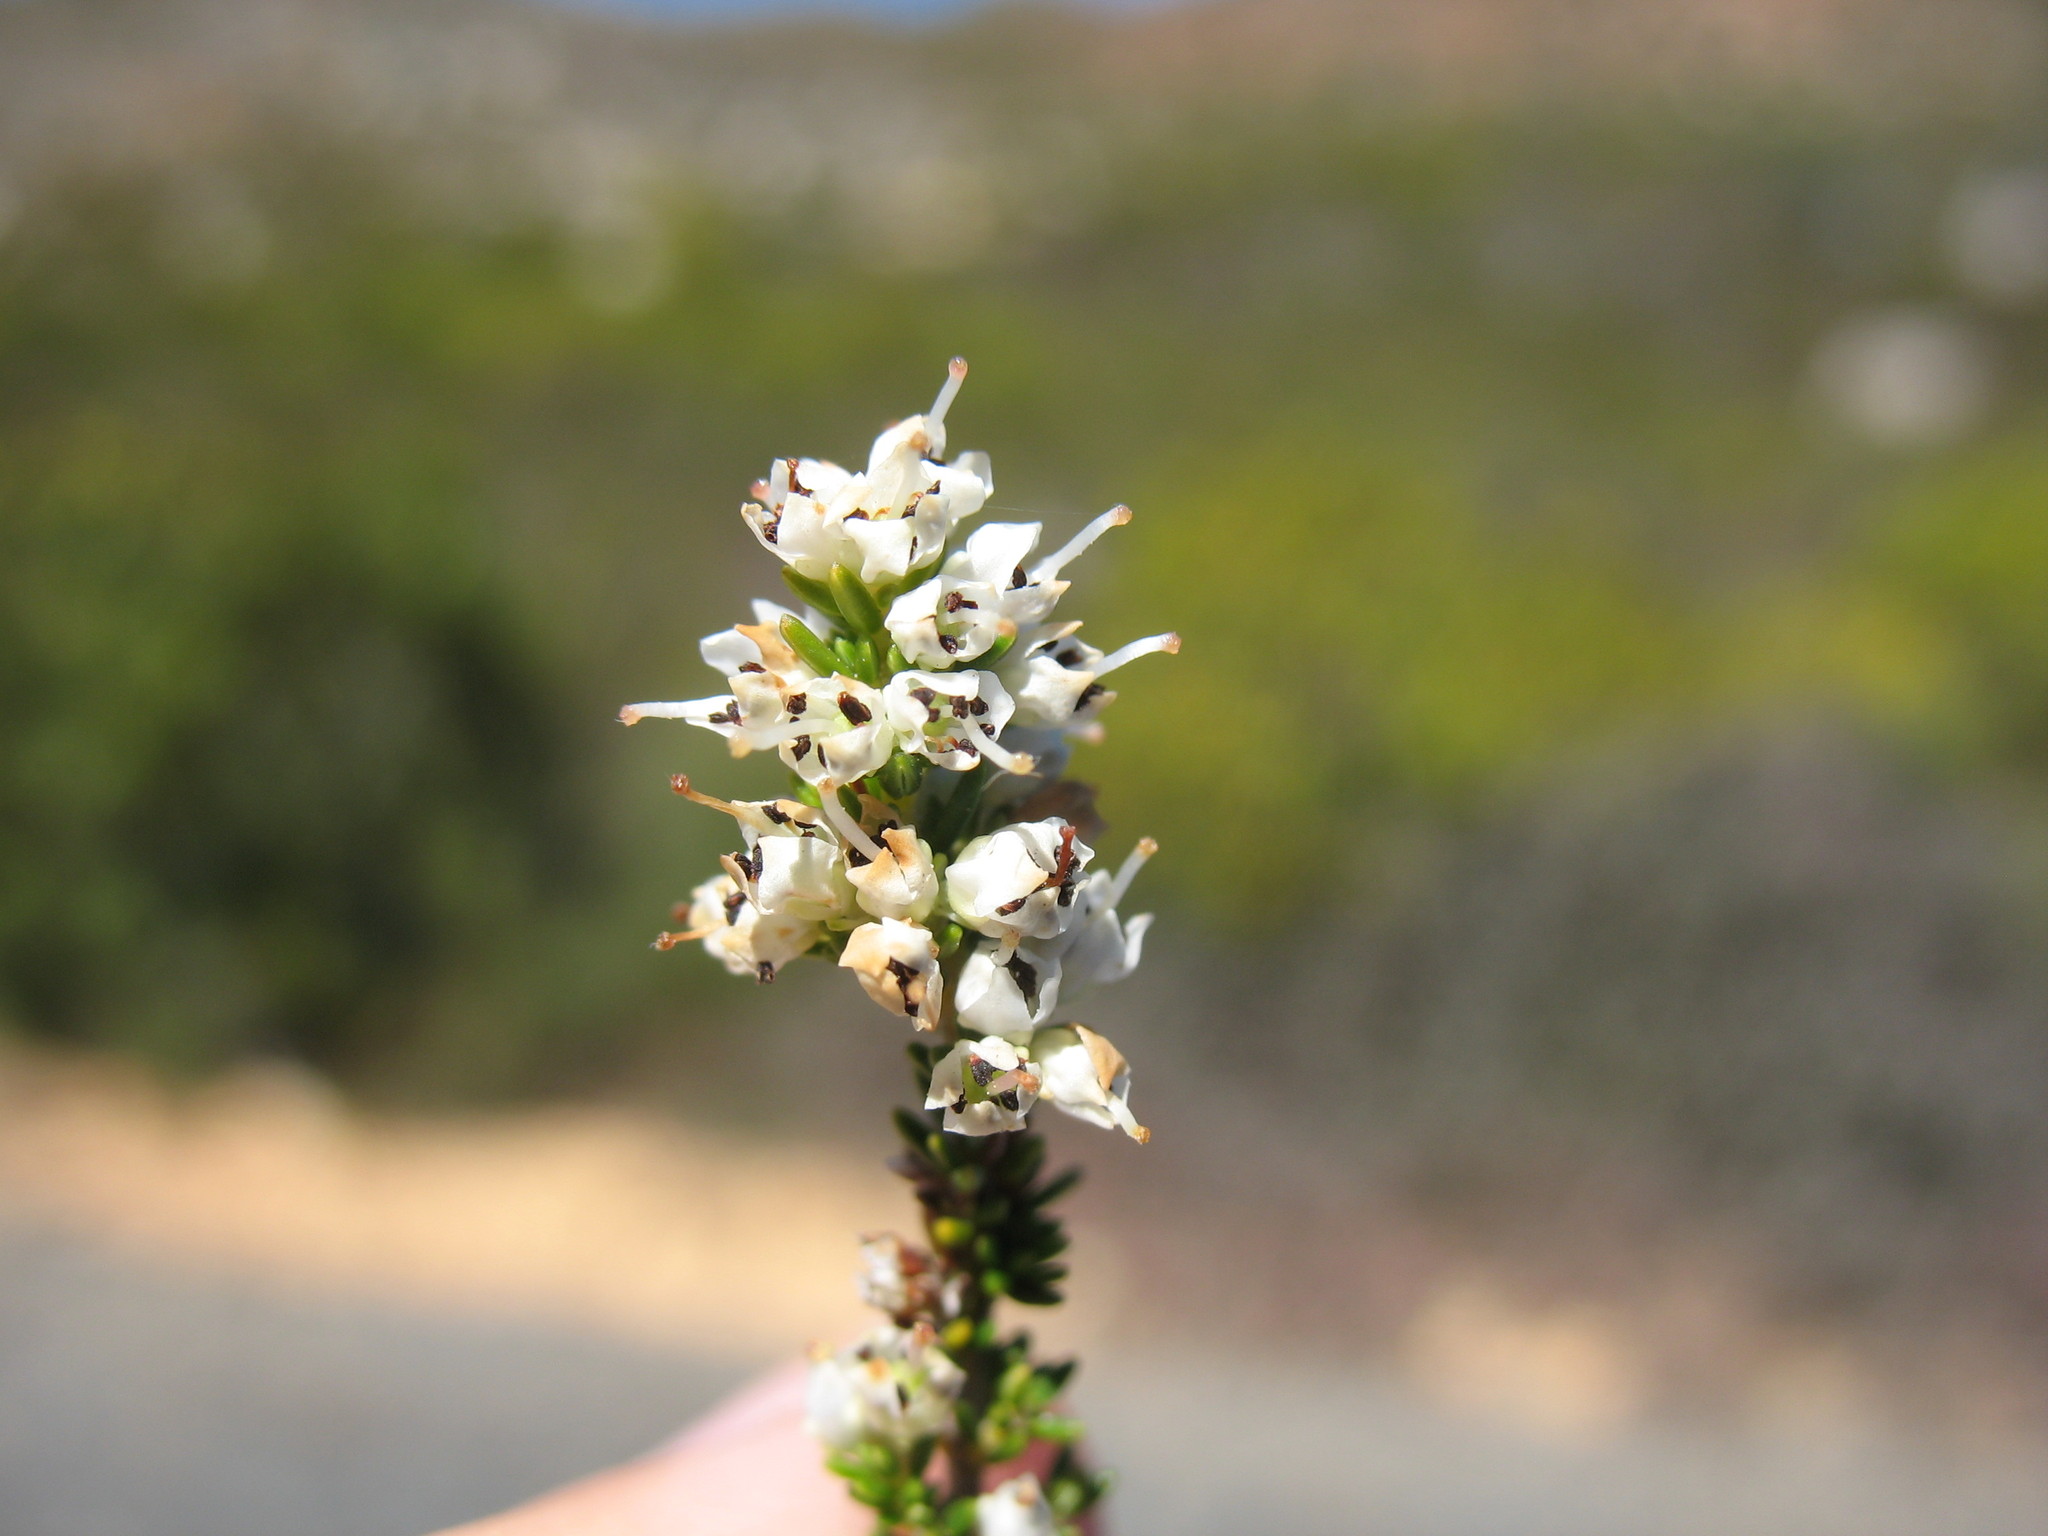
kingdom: Plantae
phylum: Tracheophyta
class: Magnoliopsida
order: Ericales
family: Ericaceae
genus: Erica
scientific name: Erica floccifera
